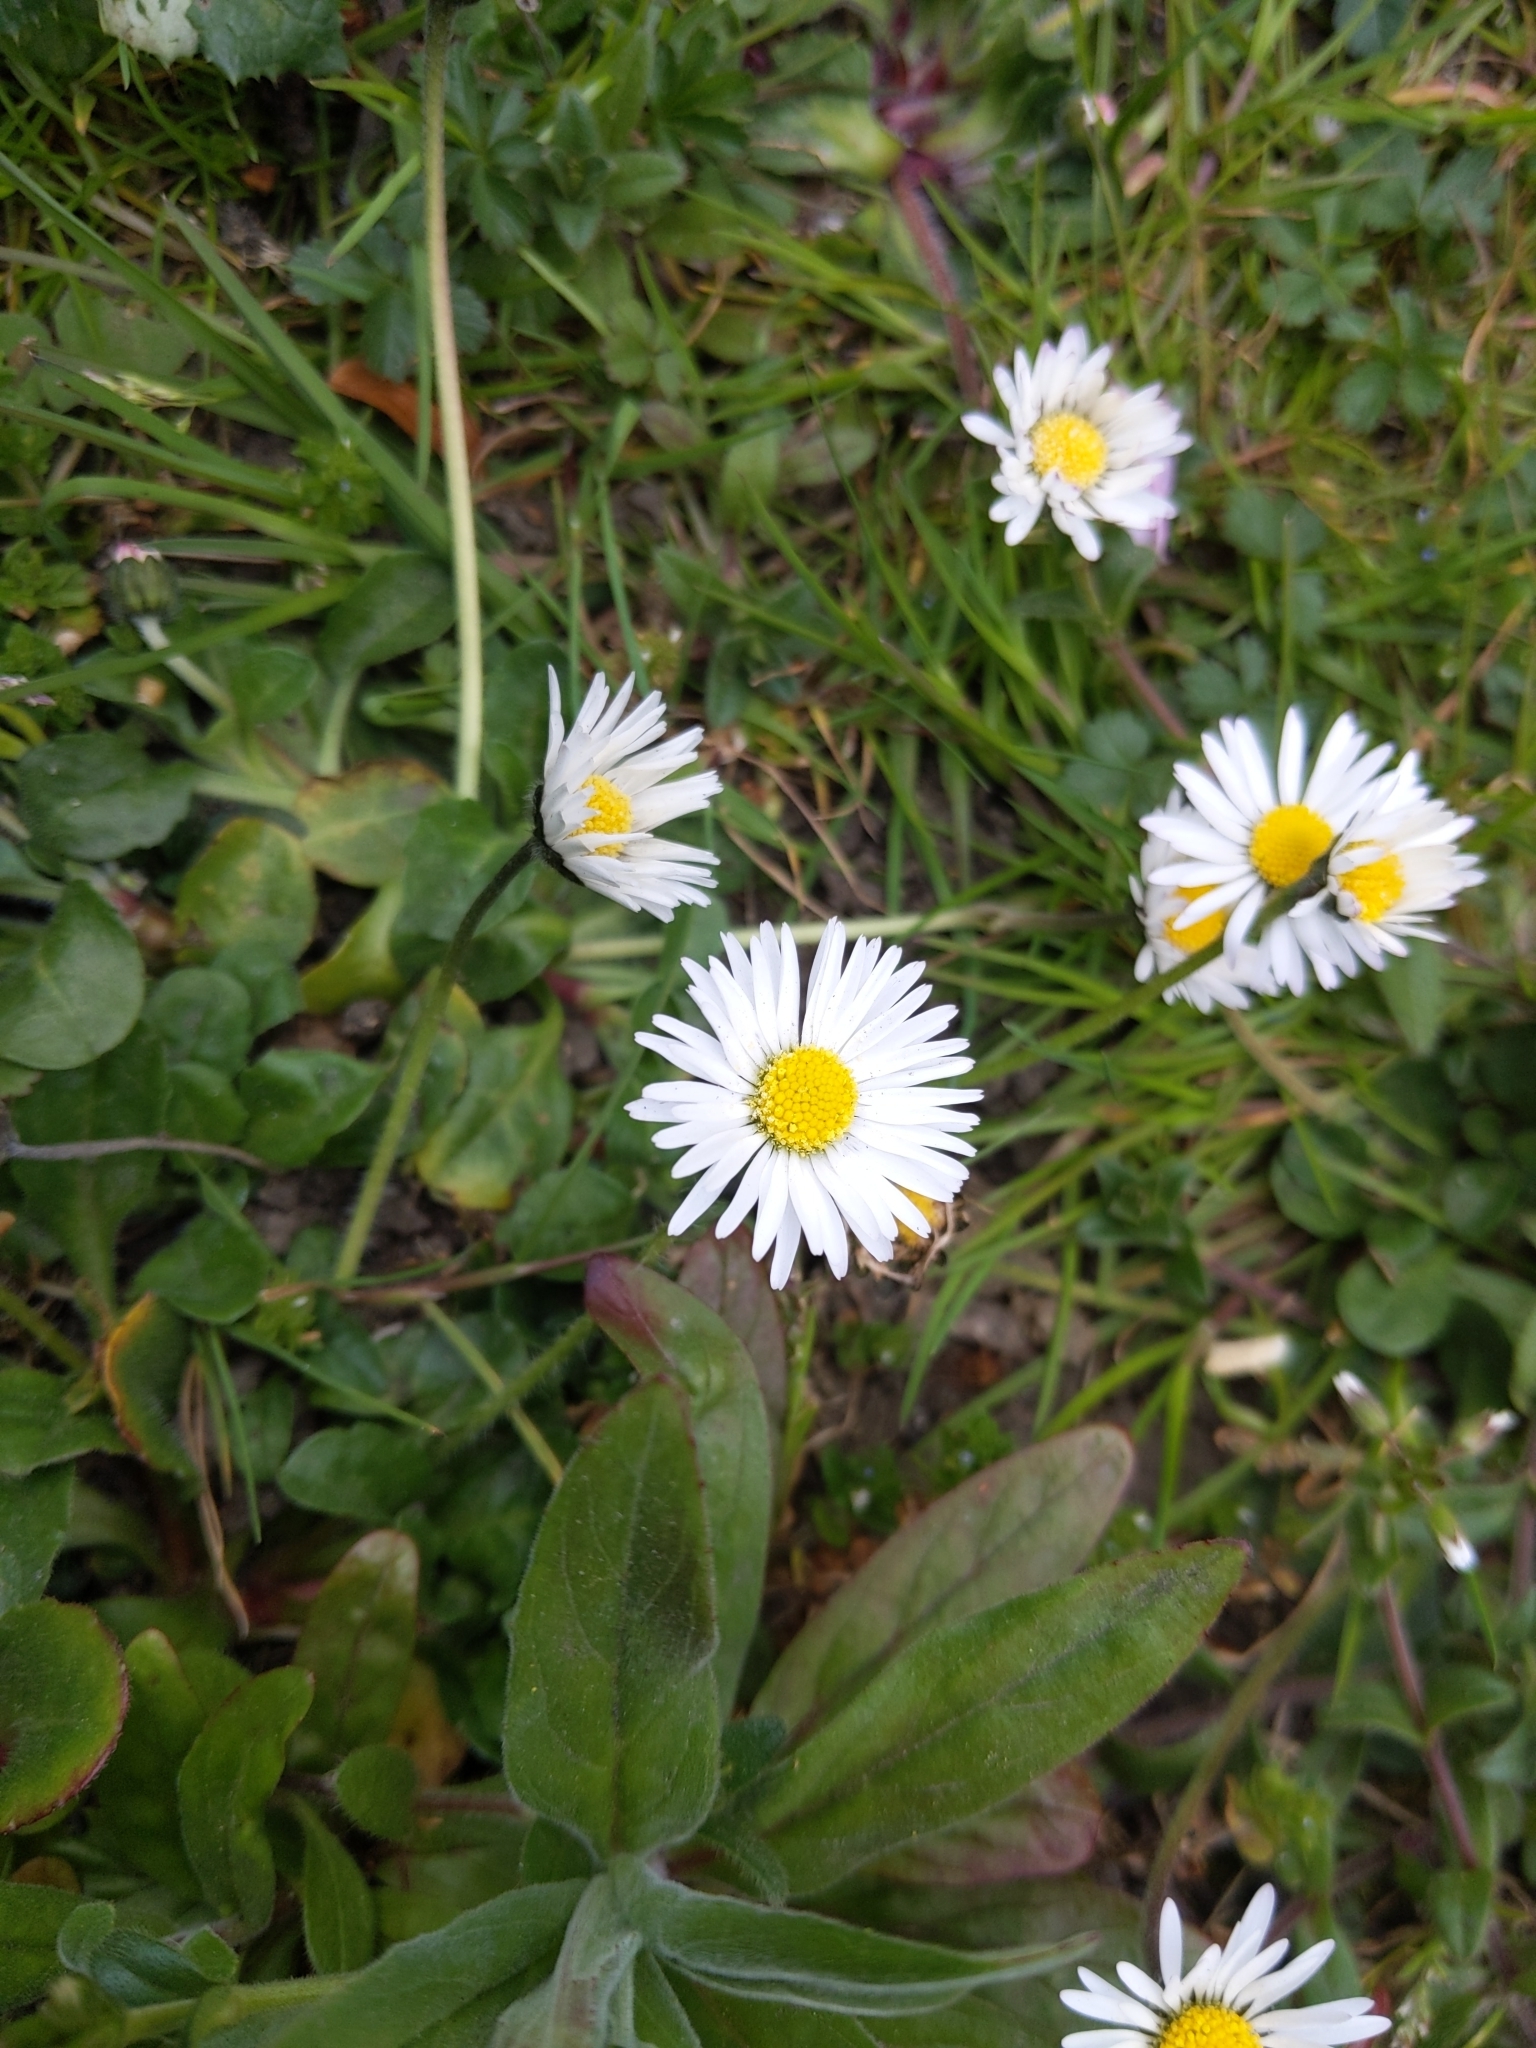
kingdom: Plantae
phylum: Tracheophyta
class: Magnoliopsida
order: Asterales
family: Asteraceae
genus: Bellis
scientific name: Bellis perennis
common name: Lawndaisy
